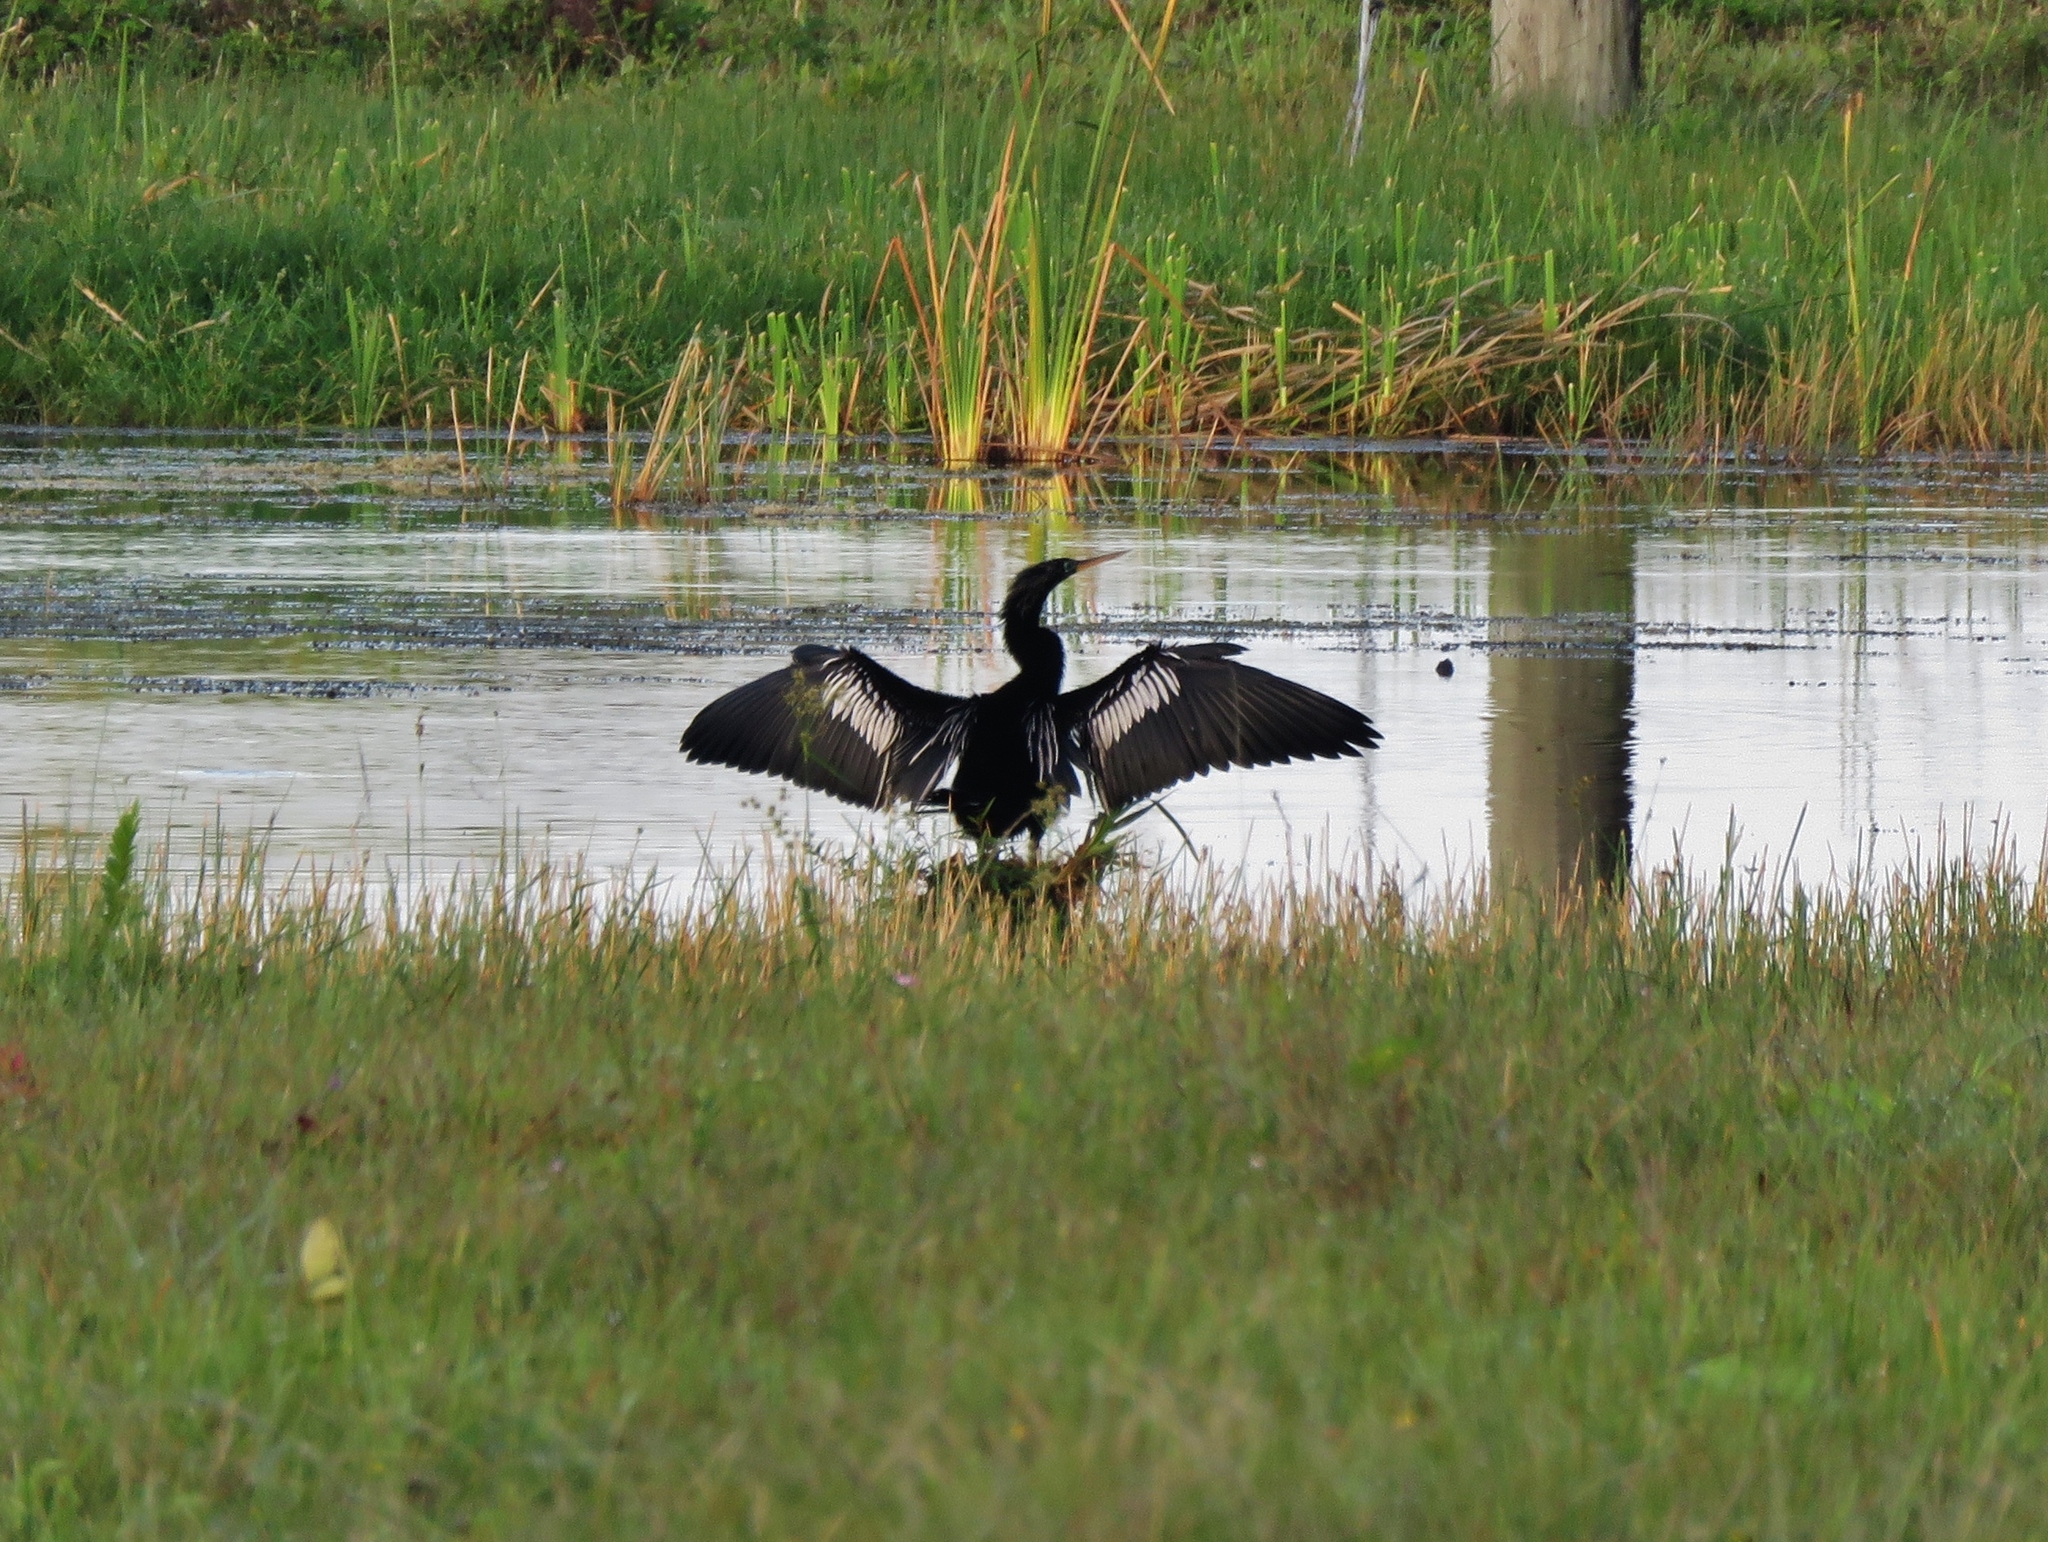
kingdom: Animalia
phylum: Chordata
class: Aves
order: Suliformes
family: Anhingidae
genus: Anhinga
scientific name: Anhinga anhinga
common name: Anhinga
